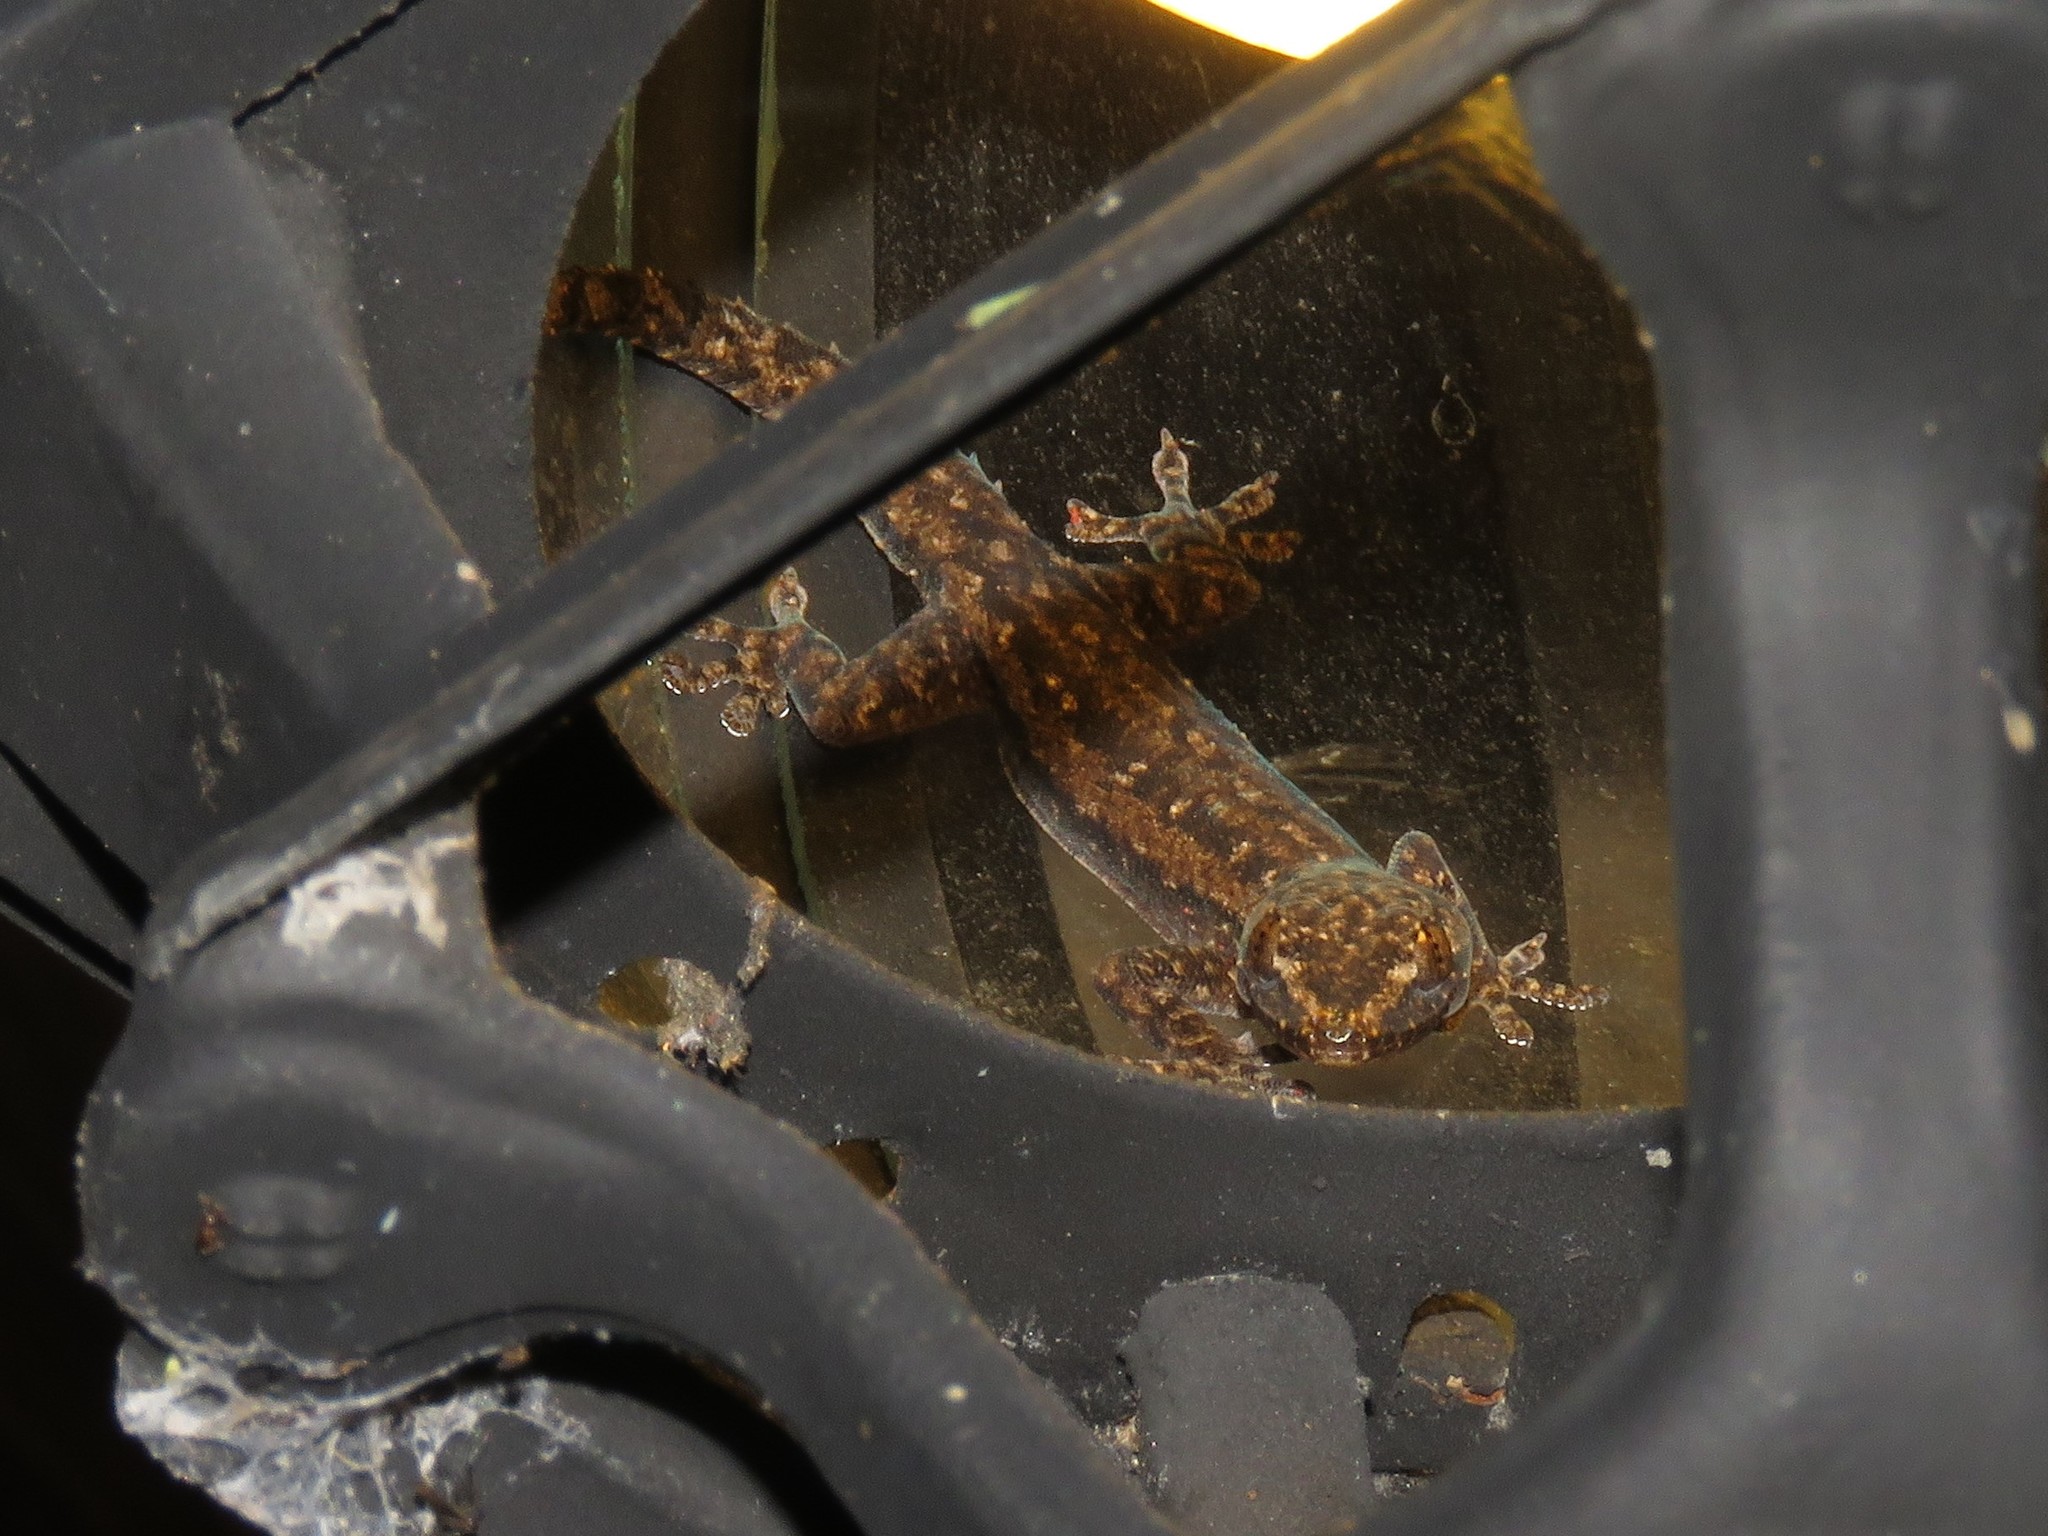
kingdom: Animalia
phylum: Chordata
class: Squamata
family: Gekkonidae
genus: Hemidactylus
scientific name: Hemidactylus frenatus
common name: Common house gecko
